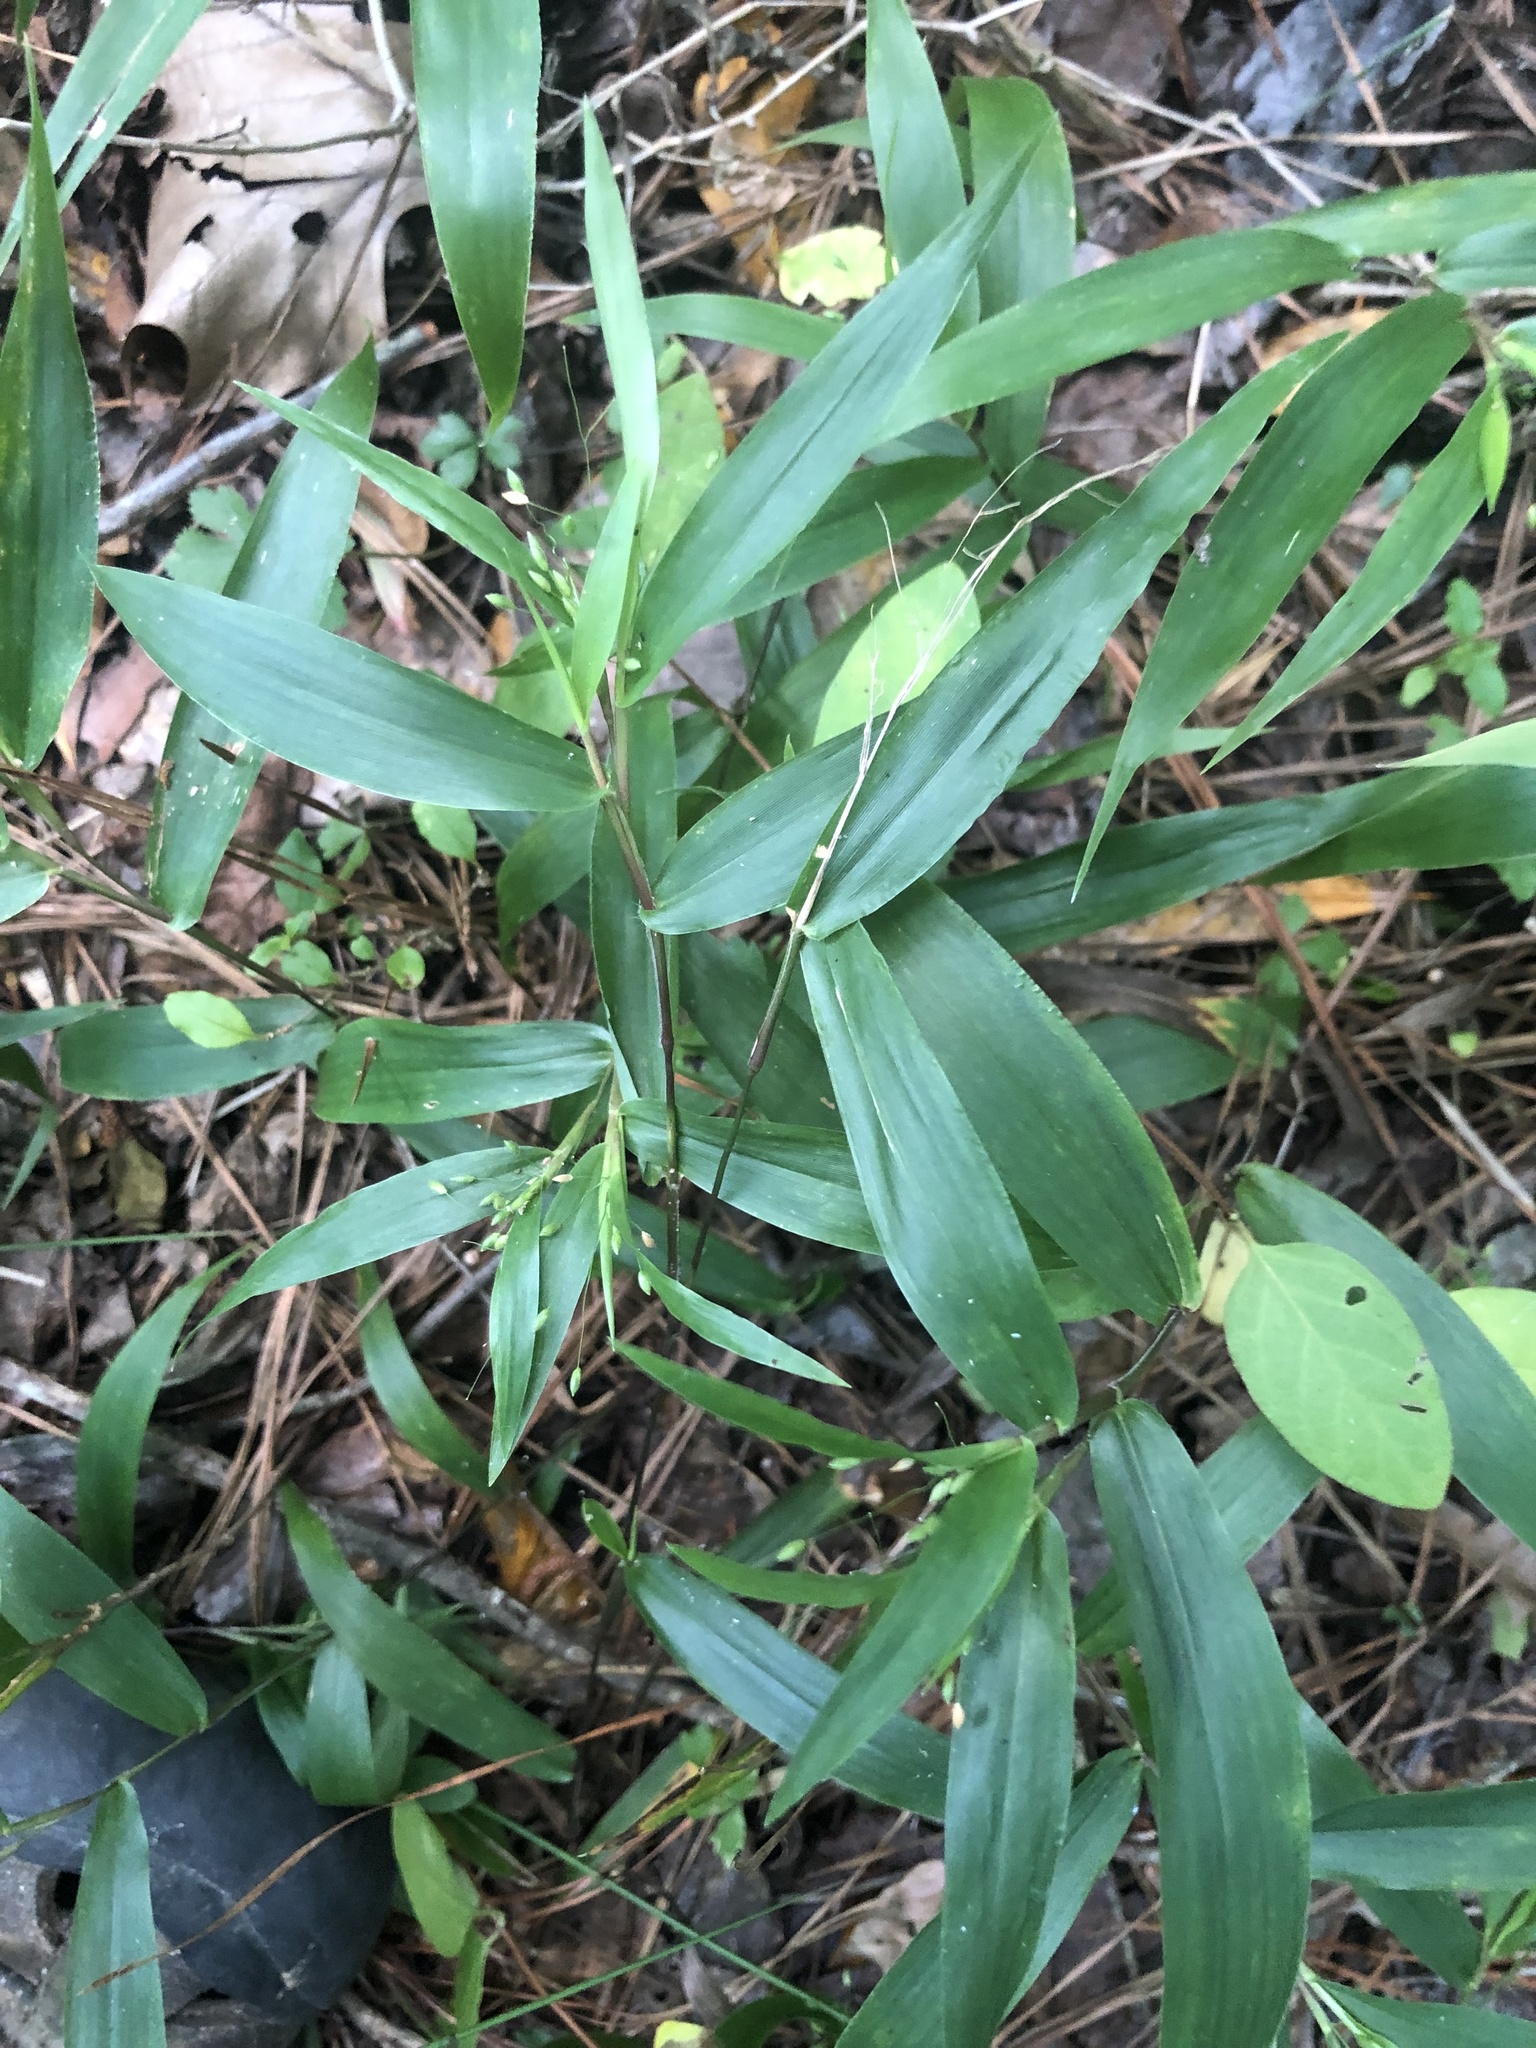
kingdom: Plantae
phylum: Tracheophyta
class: Liliopsida
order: Poales
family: Poaceae
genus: Dichanthelium
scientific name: Dichanthelium commutatum
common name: Variable witchgrass
